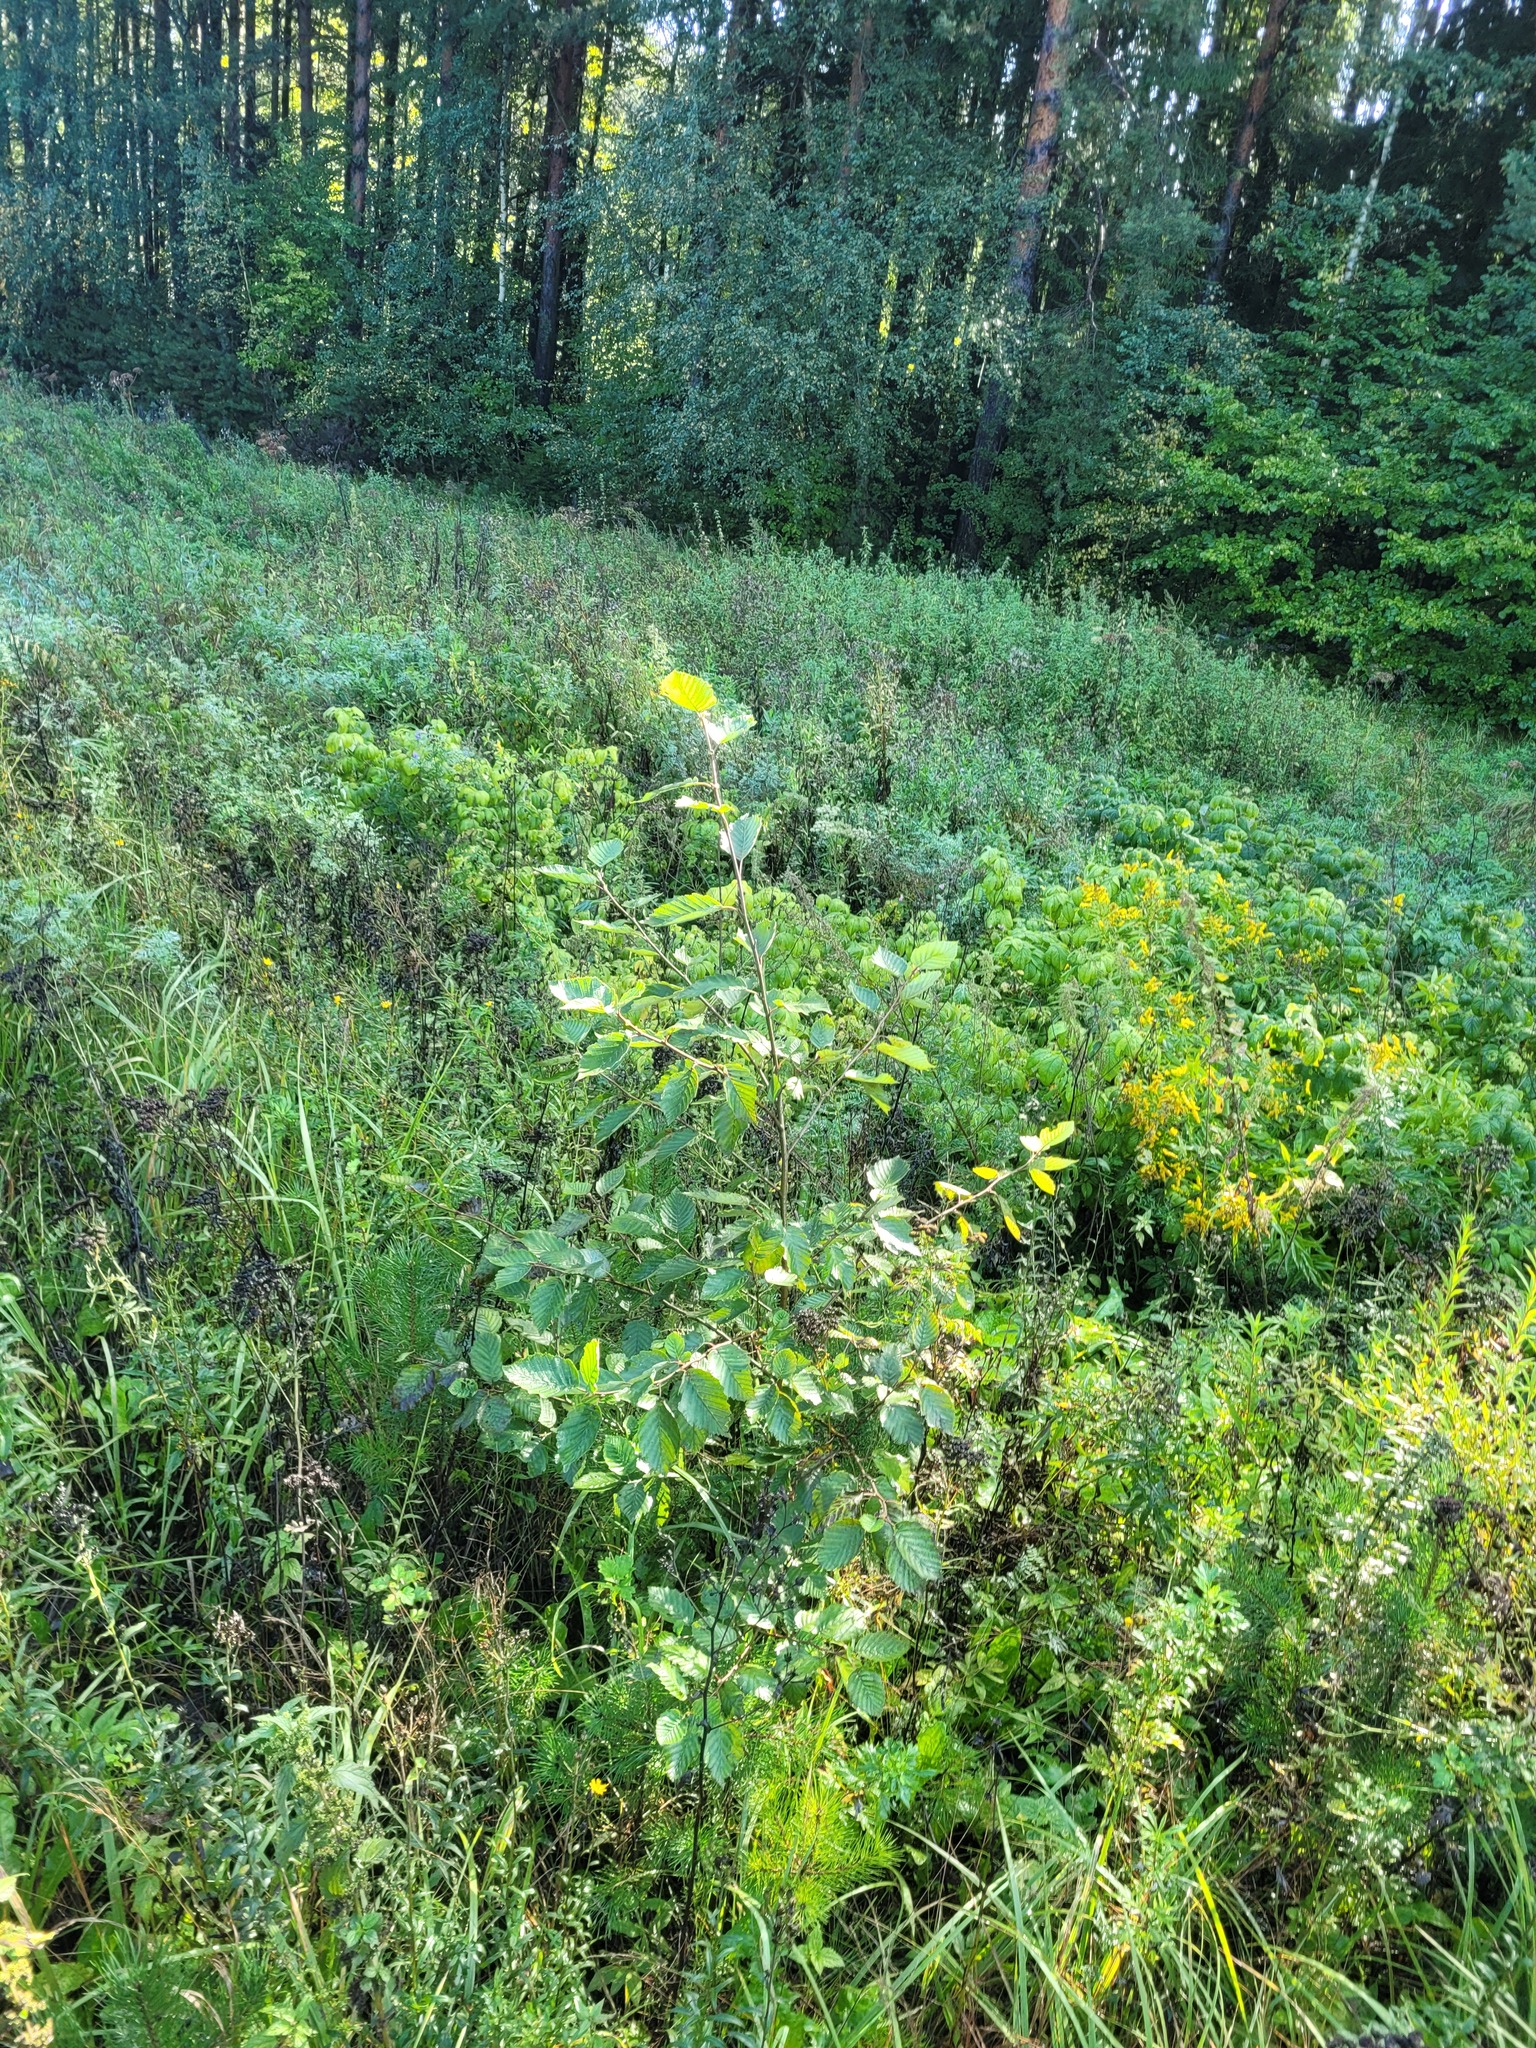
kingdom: Plantae
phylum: Tracheophyta
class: Magnoliopsida
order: Fagales
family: Betulaceae
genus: Alnus
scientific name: Alnus incana
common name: Grey alder
